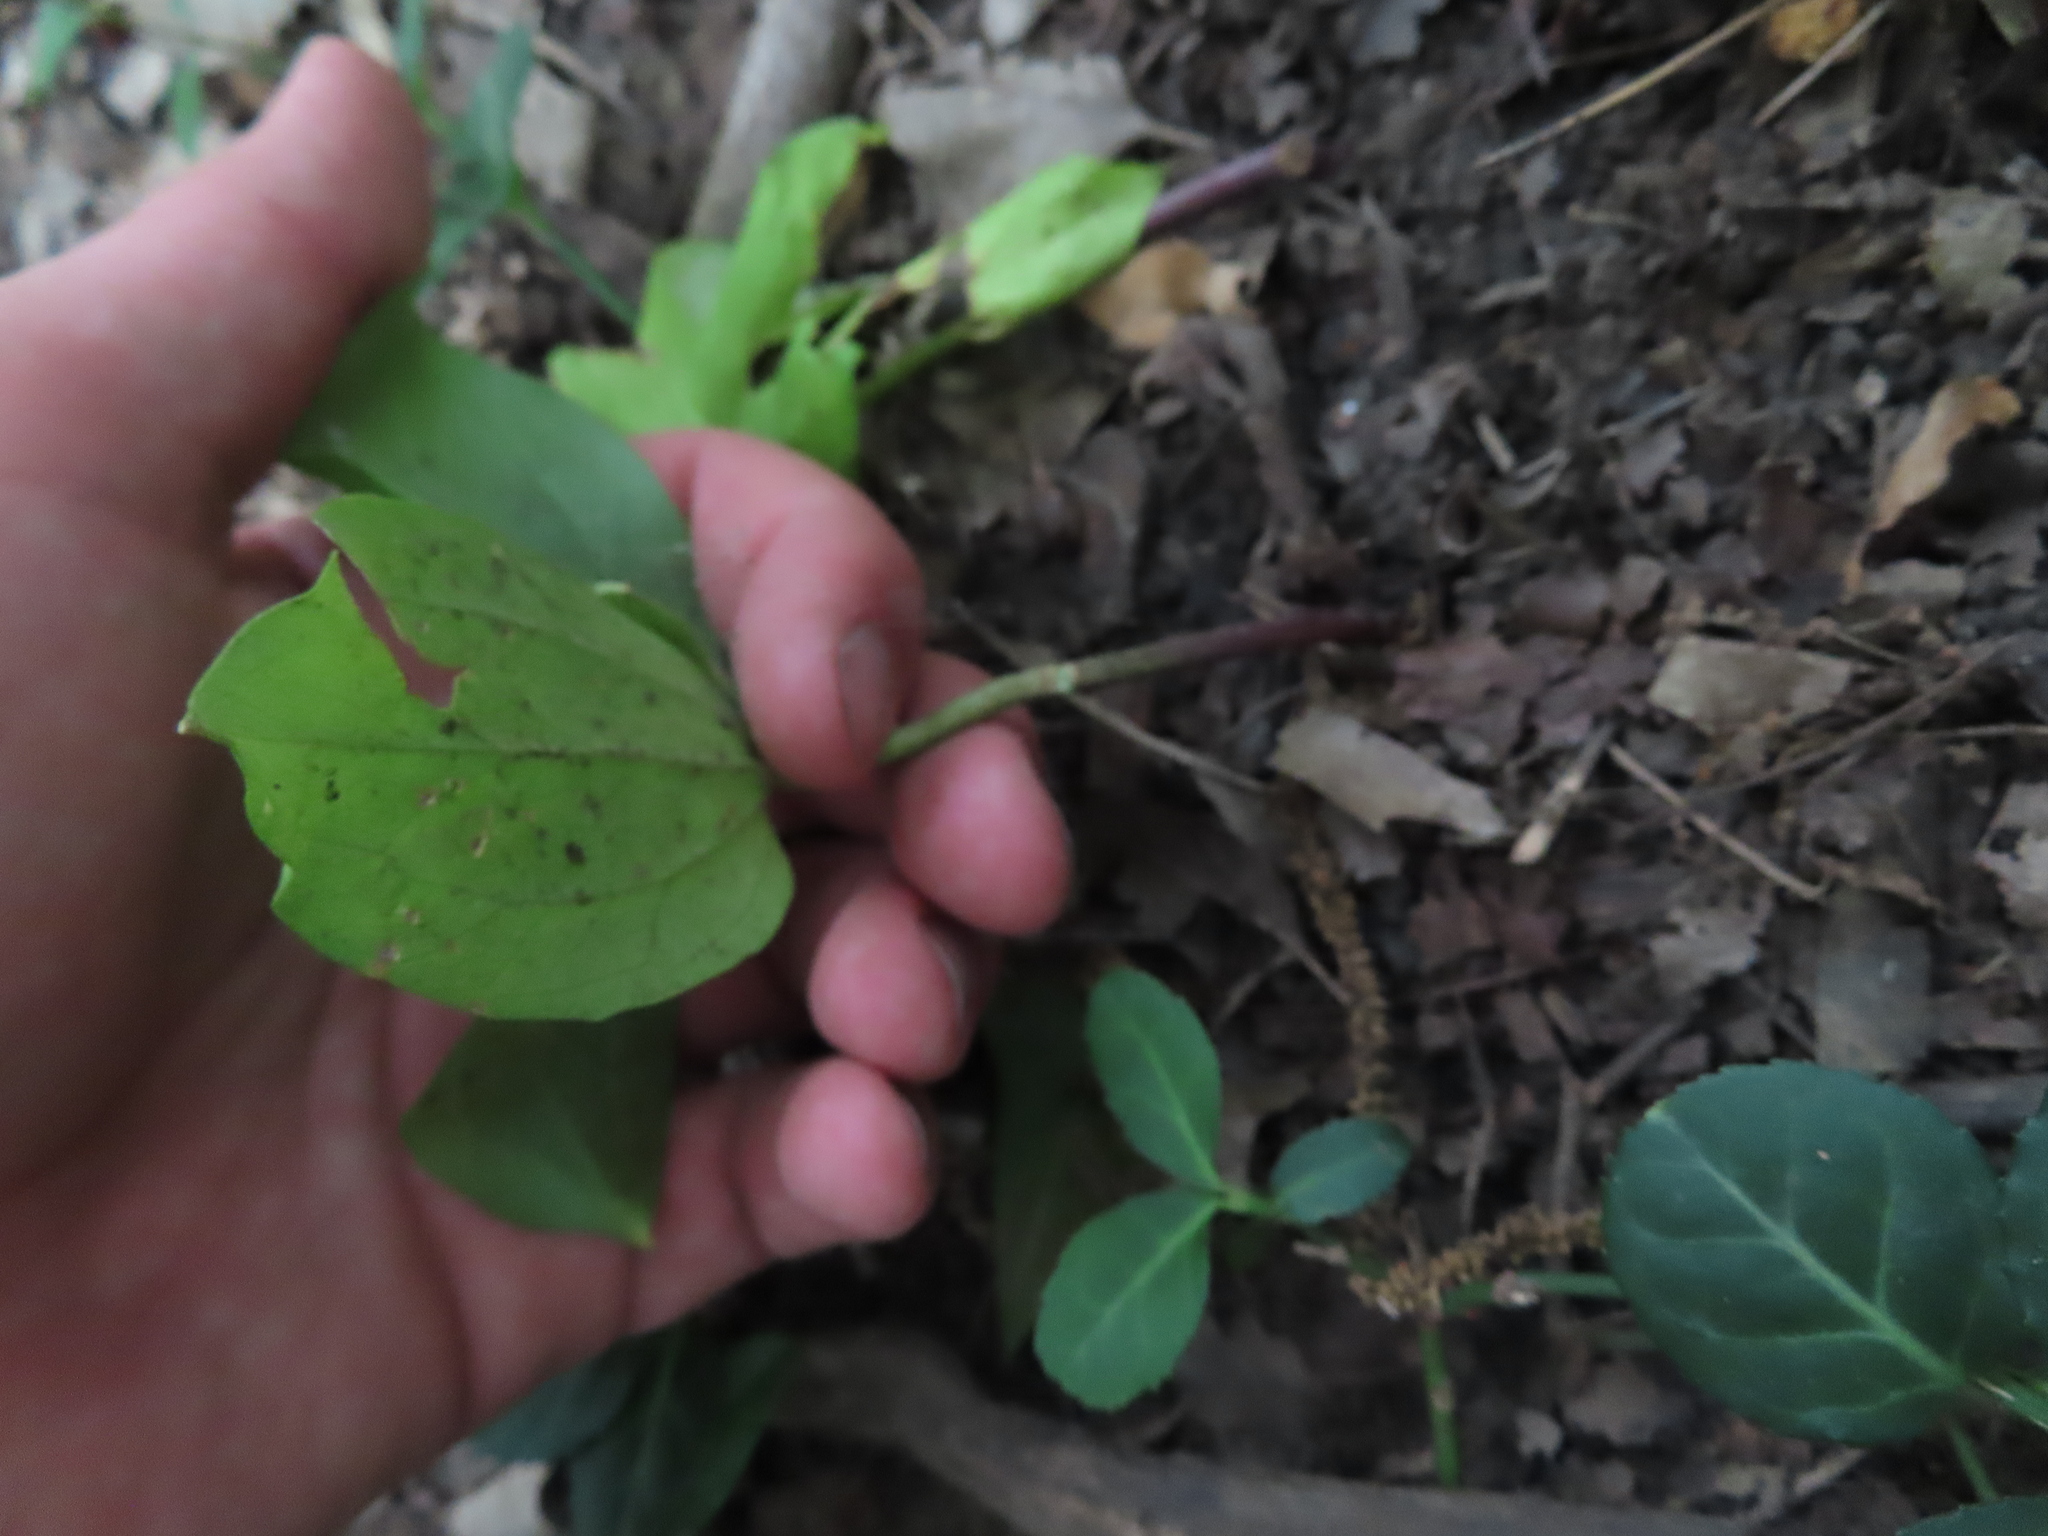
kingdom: Plantae
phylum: Tracheophyta
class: Liliopsida
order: Liliales
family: Melanthiaceae
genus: Trillium
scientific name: Trillium sessile
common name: Sessile trillium
